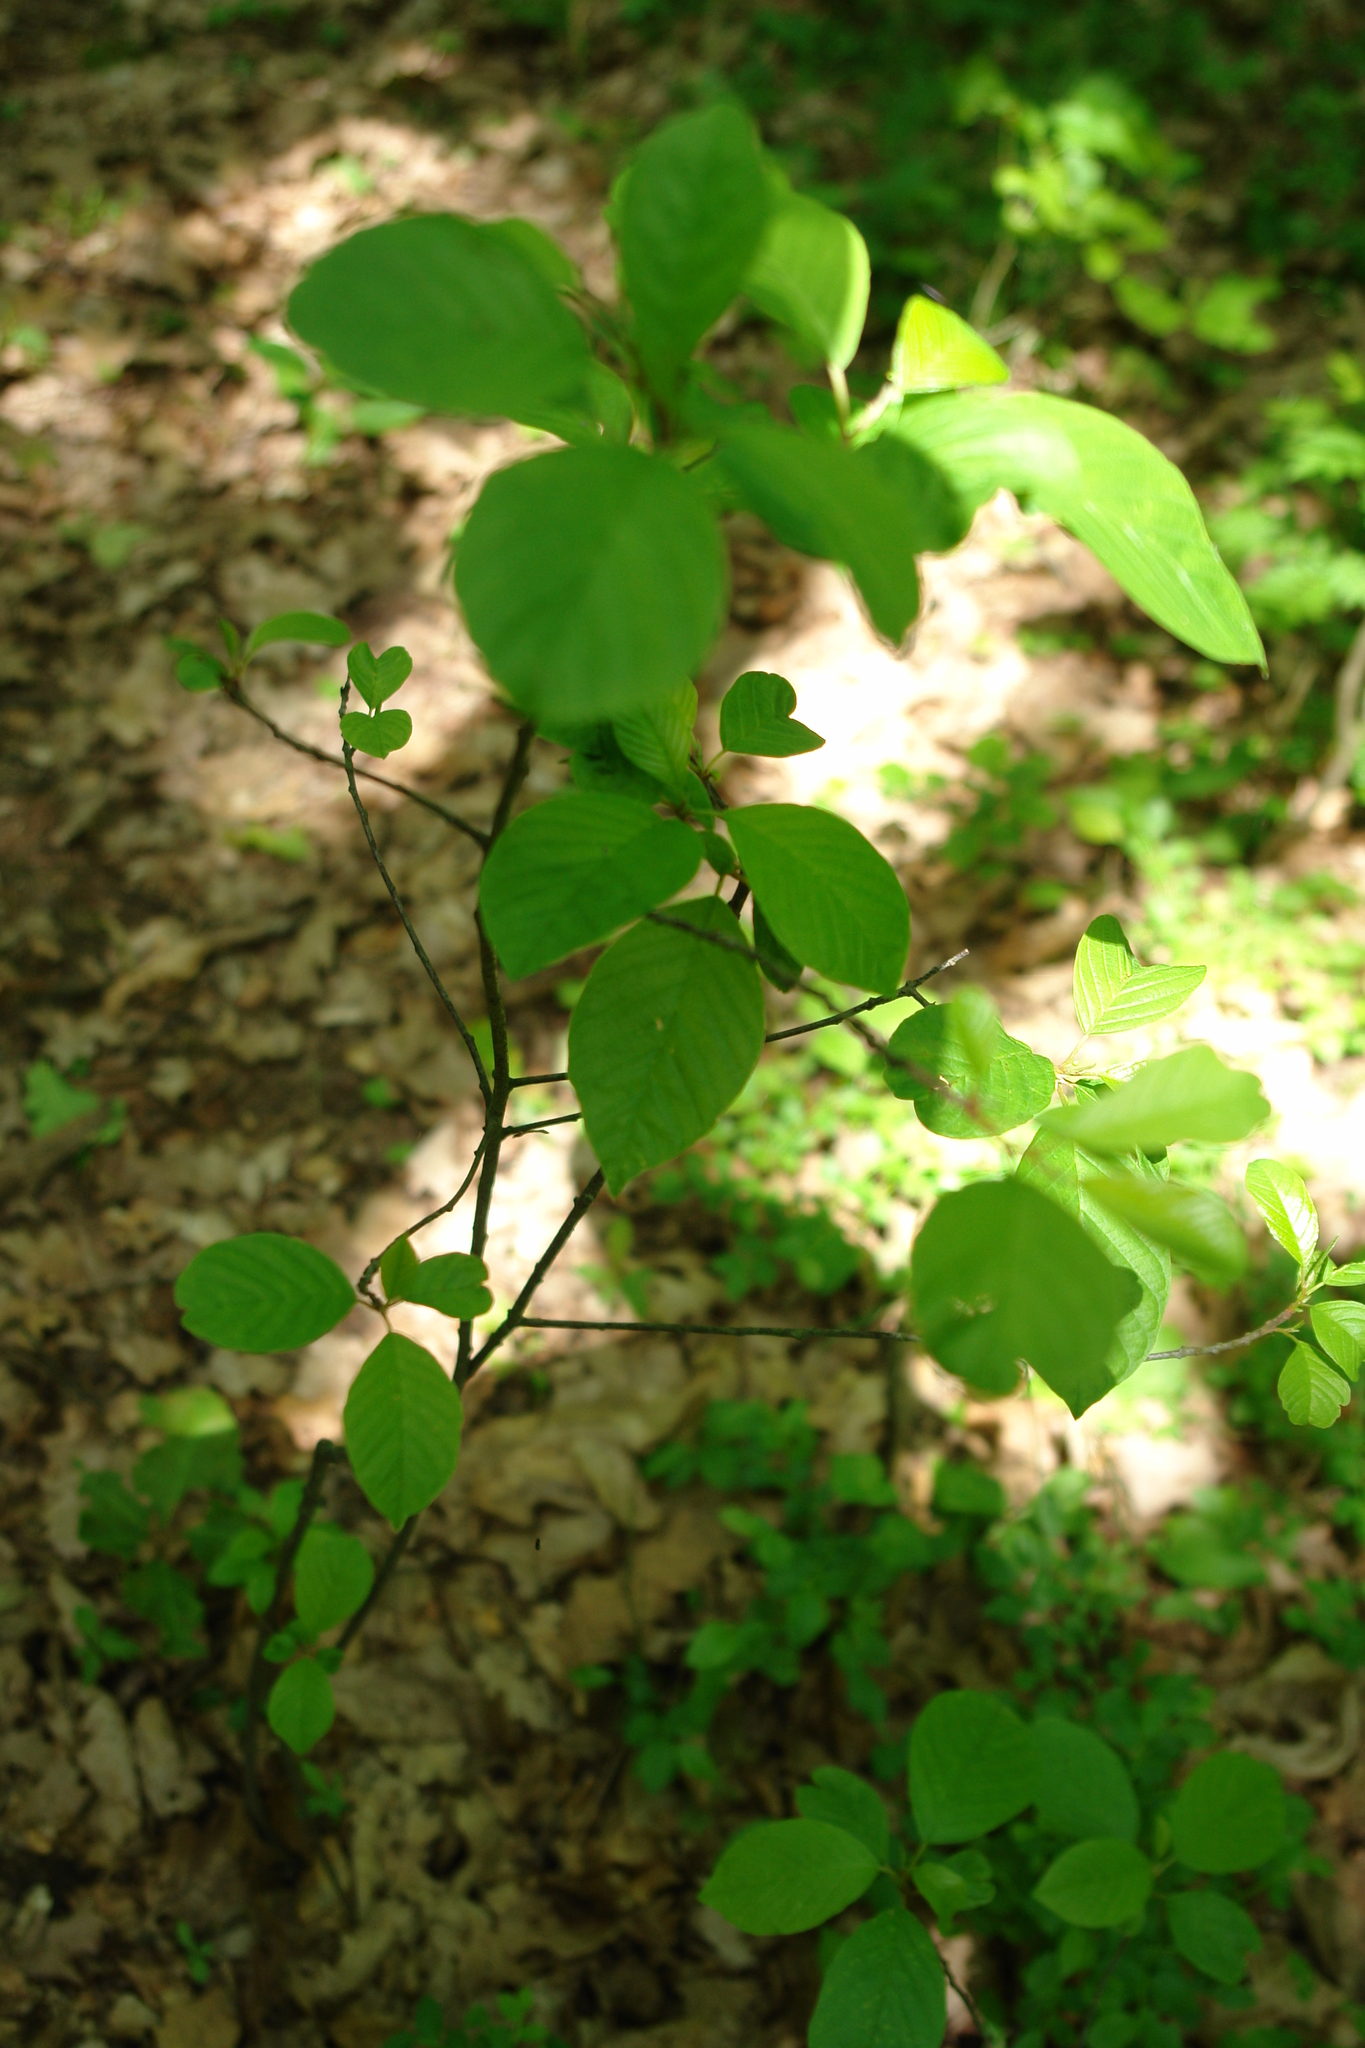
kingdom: Plantae
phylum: Tracheophyta
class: Magnoliopsida
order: Rosales
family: Rhamnaceae
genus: Frangula
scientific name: Frangula alnus
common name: Alder buckthorn
